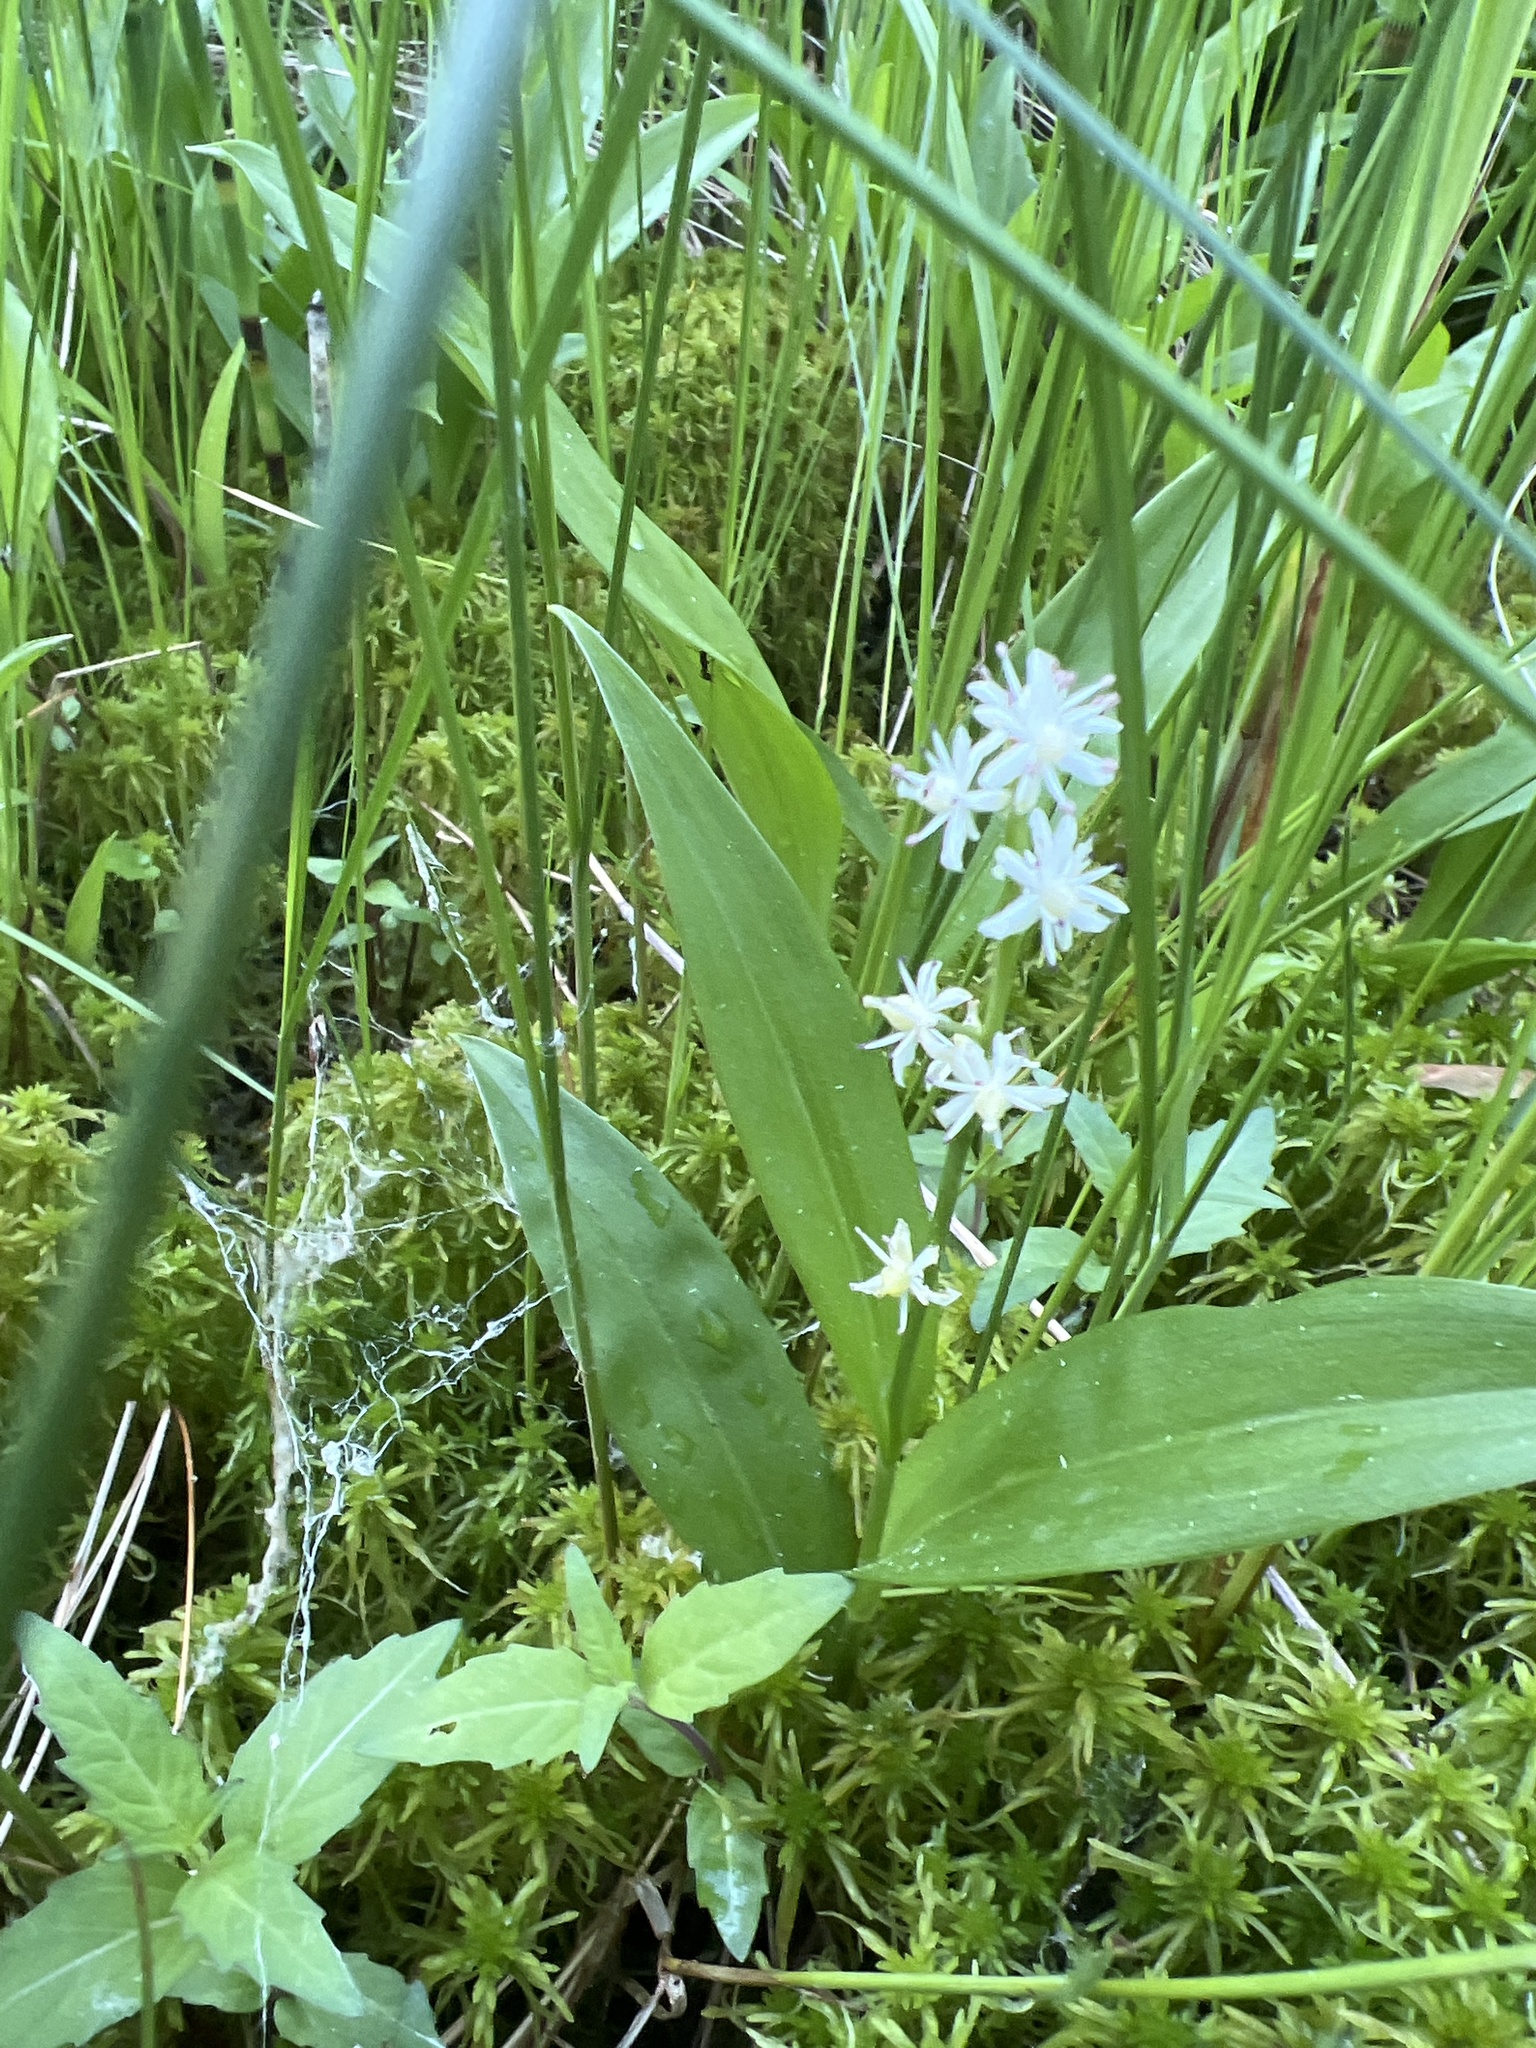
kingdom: Plantae
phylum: Tracheophyta
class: Liliopsida
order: Asparagales
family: Asparagaceae
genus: Maianthemum
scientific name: Maianthemum trifolium
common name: Swamp false solomon's seal
